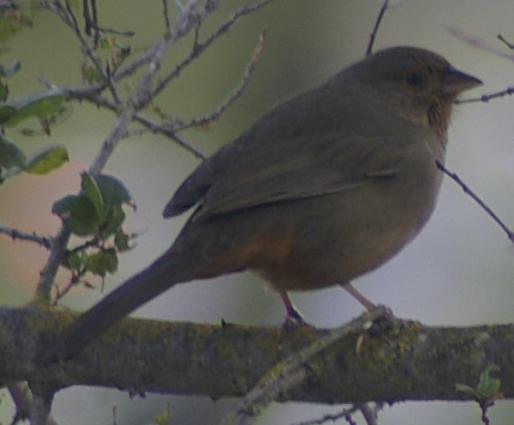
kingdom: Animalia
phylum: Chordata
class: Aves
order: Passeriformes
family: Passerellidae
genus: Melozone
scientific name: Melozone crissalis
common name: California towhee
